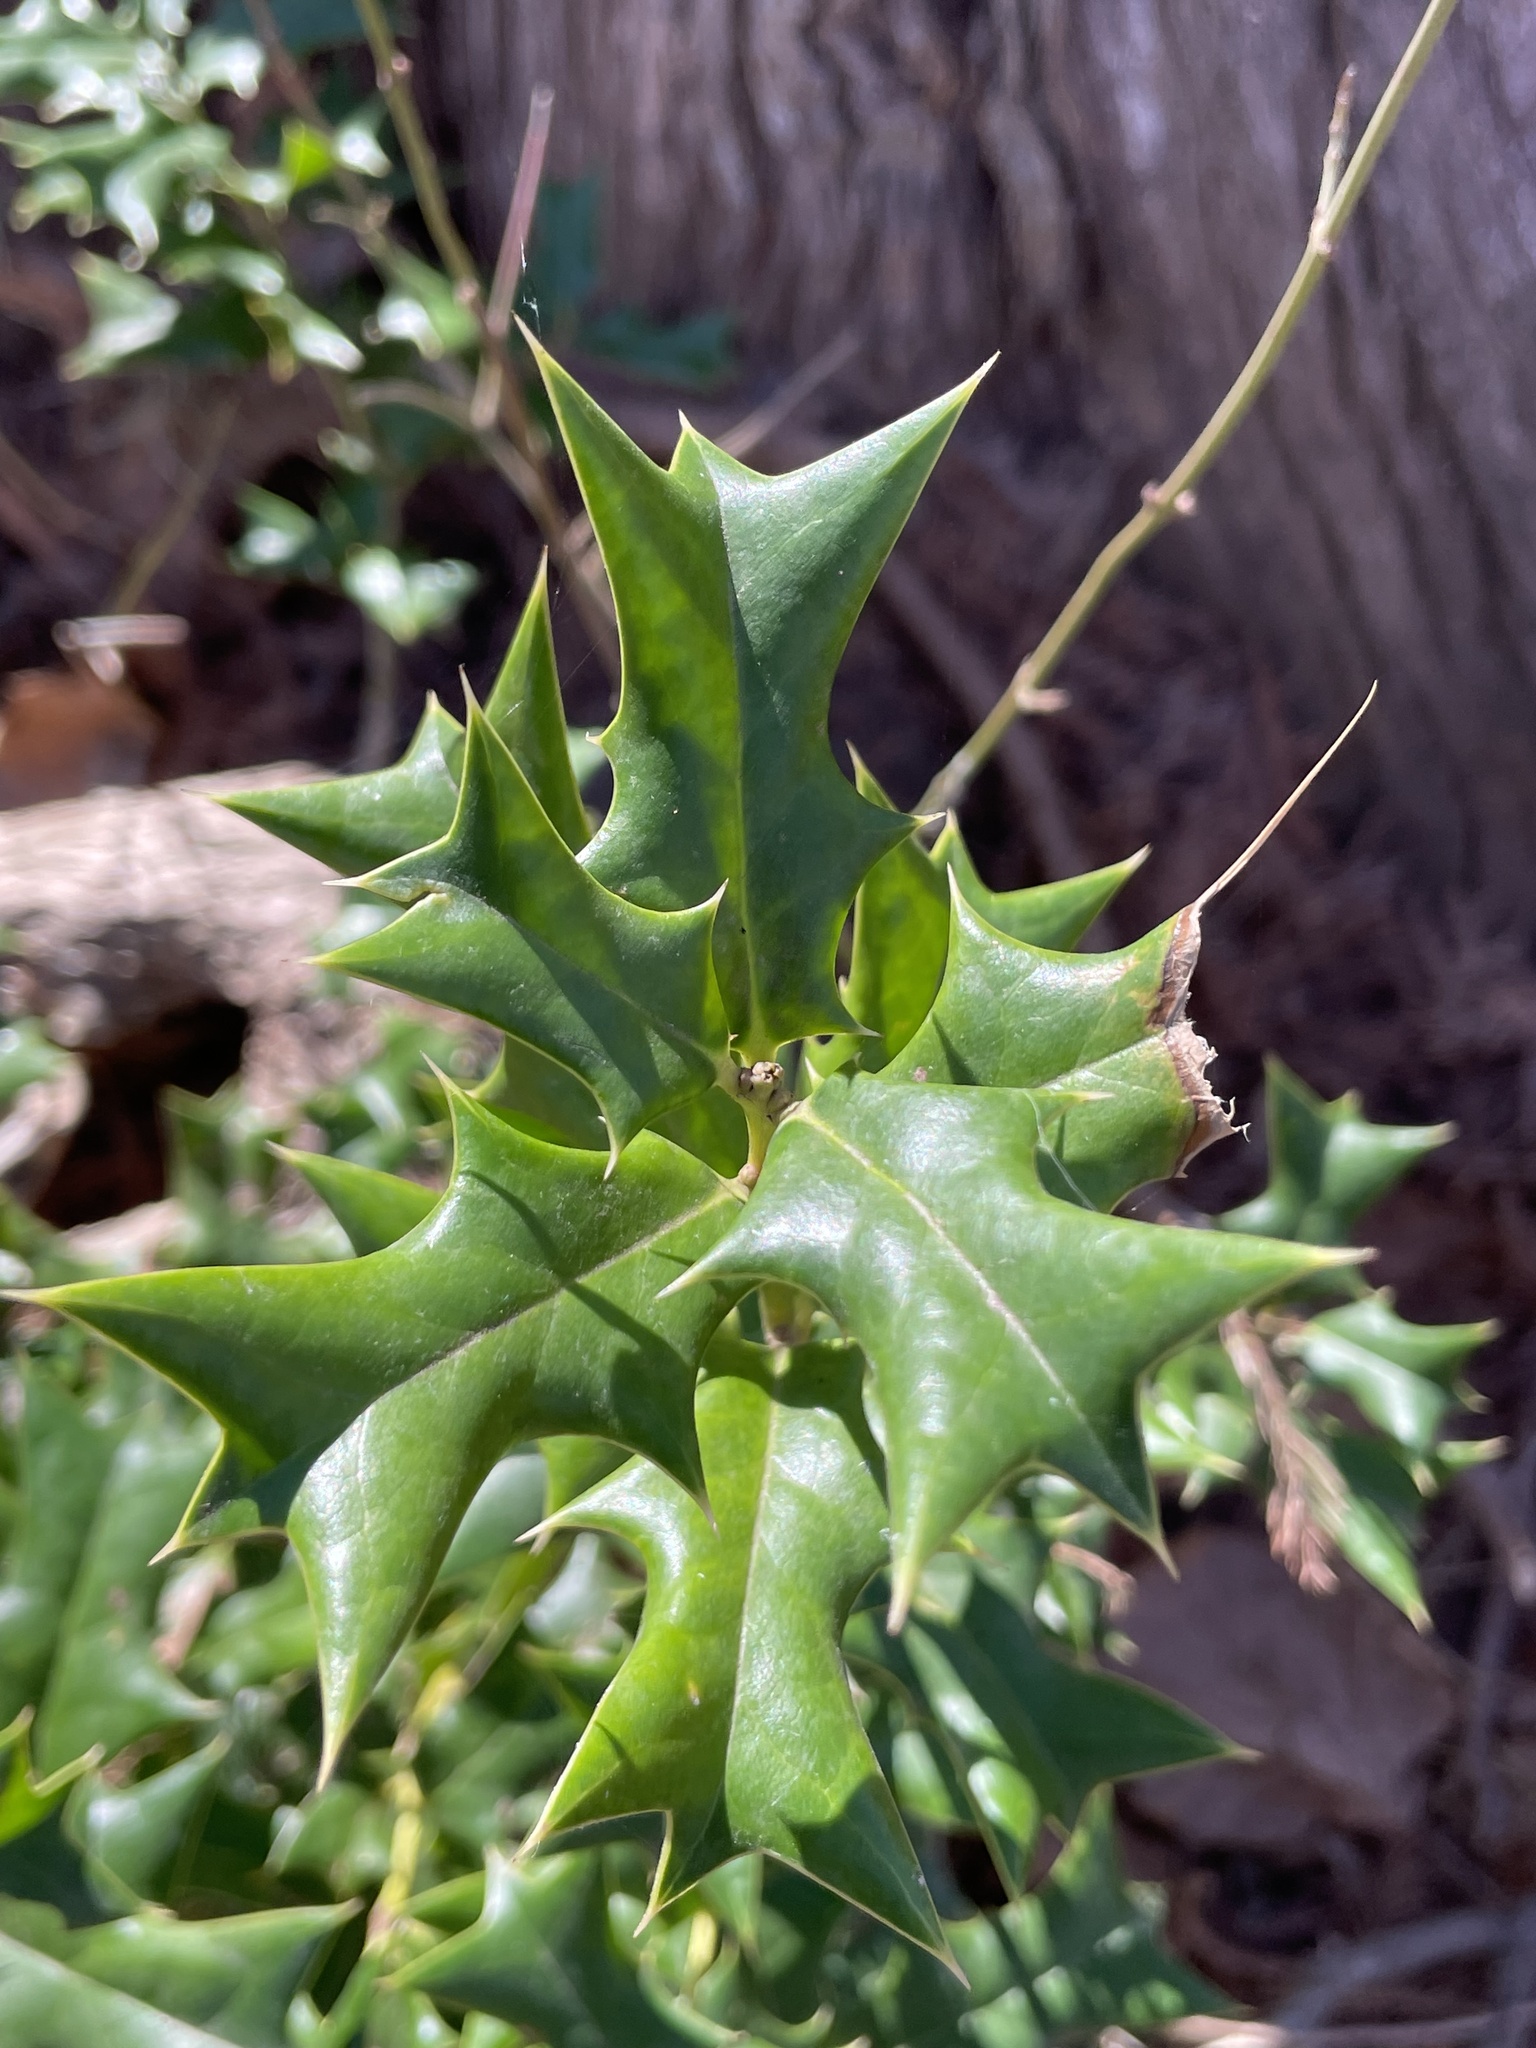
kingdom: Plantae
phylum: Tracheophyta
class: Magnoliopsida
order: Aquifoliales
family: Aquifoliaceae
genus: Ilex
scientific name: Ilex cornuta
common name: Chinese holly
